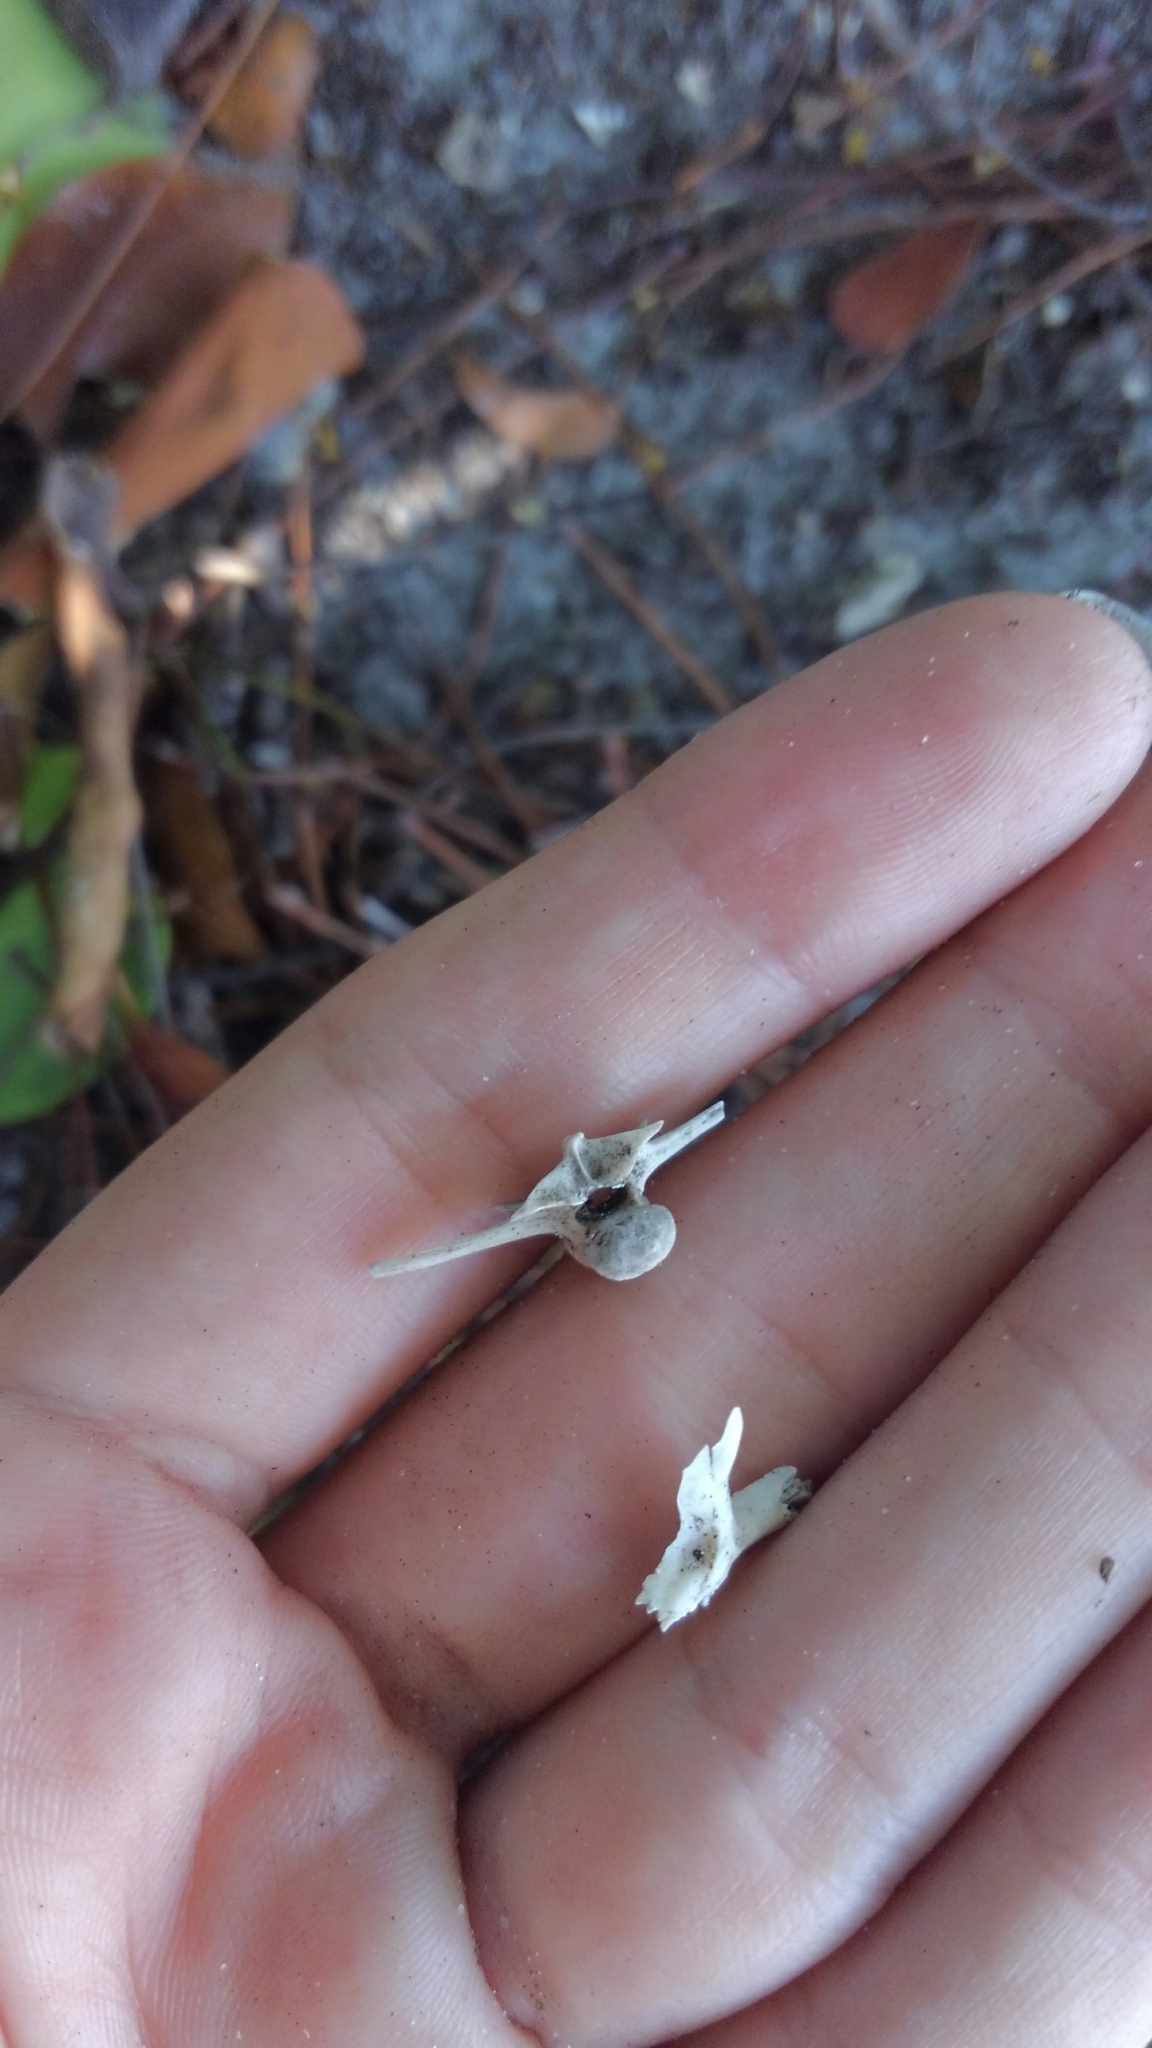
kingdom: Animalia
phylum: Chordata
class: Amphibia
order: Anura
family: Bufonidae
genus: Rhinella
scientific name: Rhinella marina
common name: Cane toad
